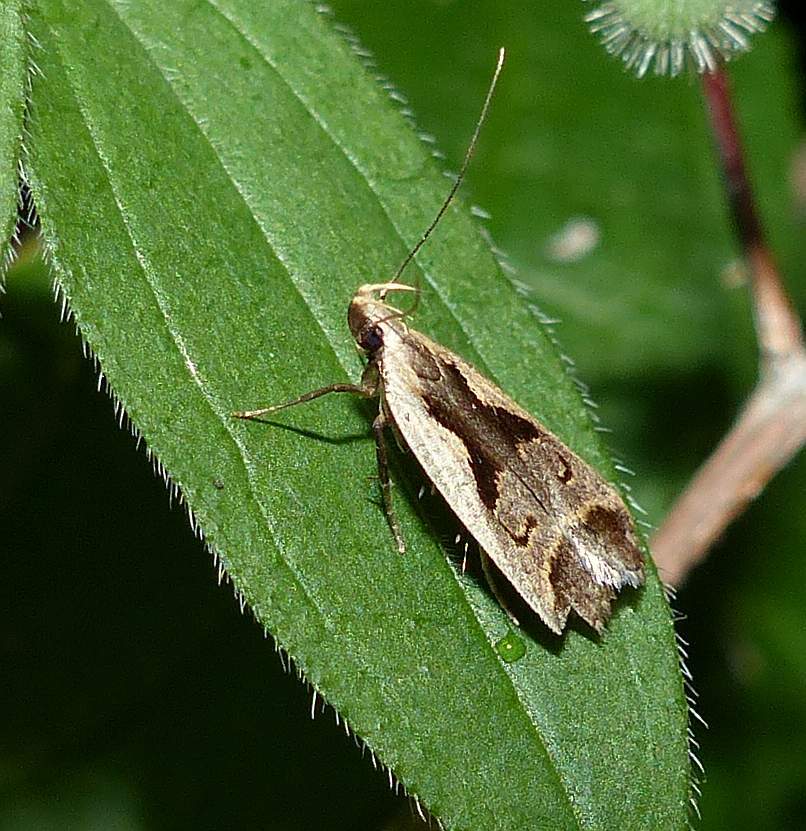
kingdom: Animalia
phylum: Arthropoda
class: Insecta
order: Lepidoptera
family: Gelechiidae
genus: Dichomeris
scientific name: Dichomeris bilobella
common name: Bilobed dichomeris moth
